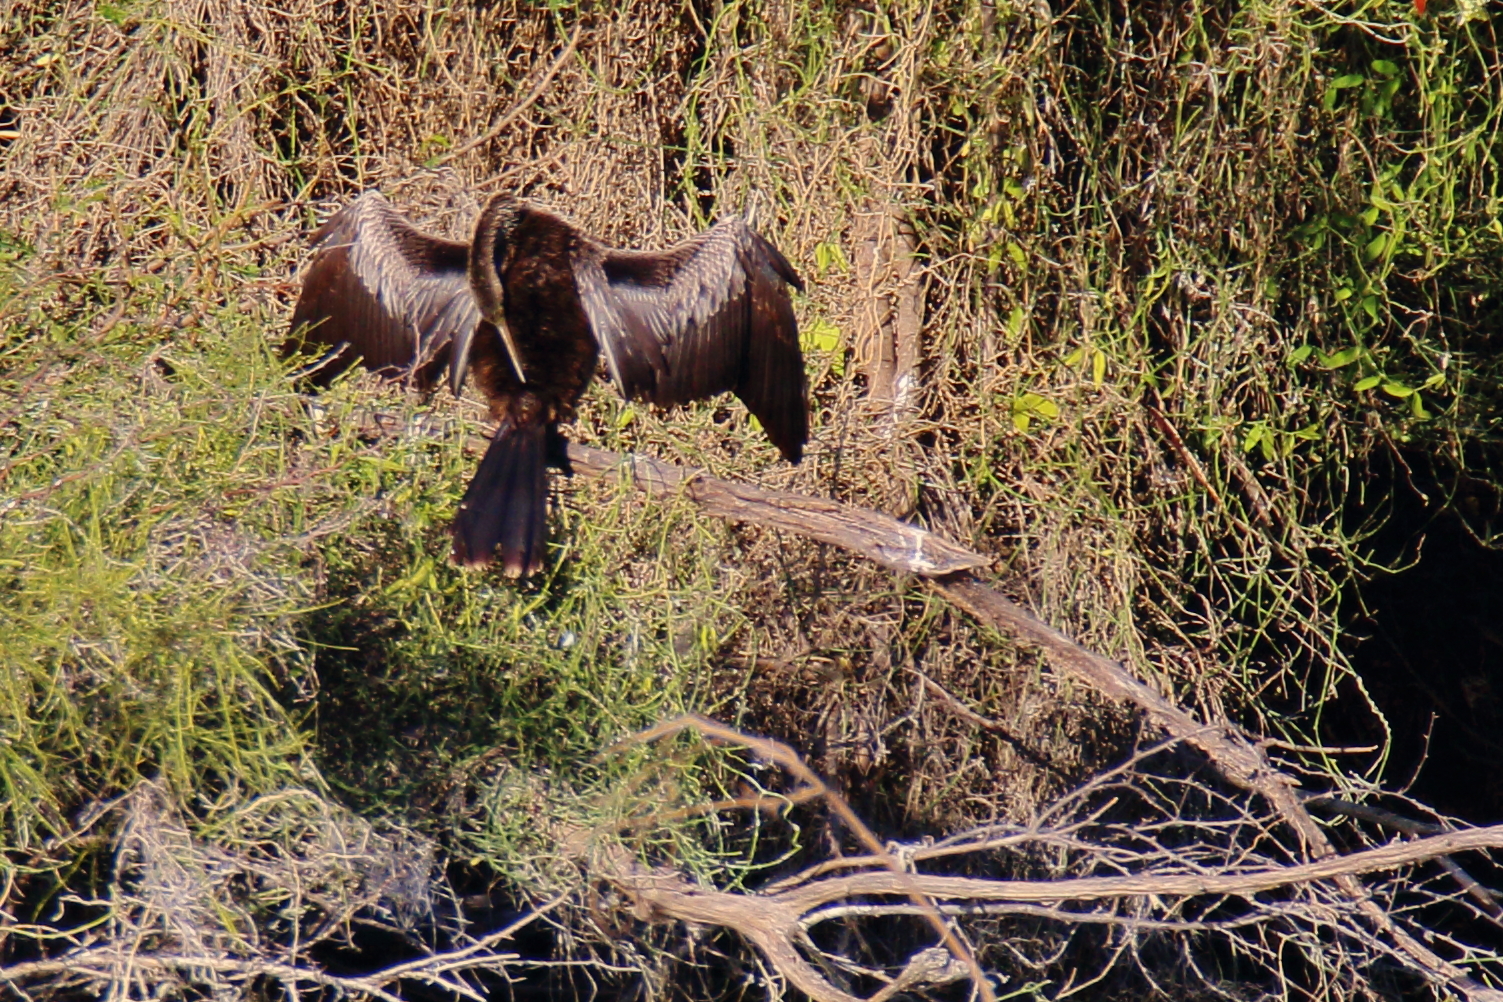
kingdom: Animalia
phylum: Chordata
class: Aves
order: Suliformes
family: Anhingidae
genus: Anhinga
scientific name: Anhinga anhinga
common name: Anhinga
